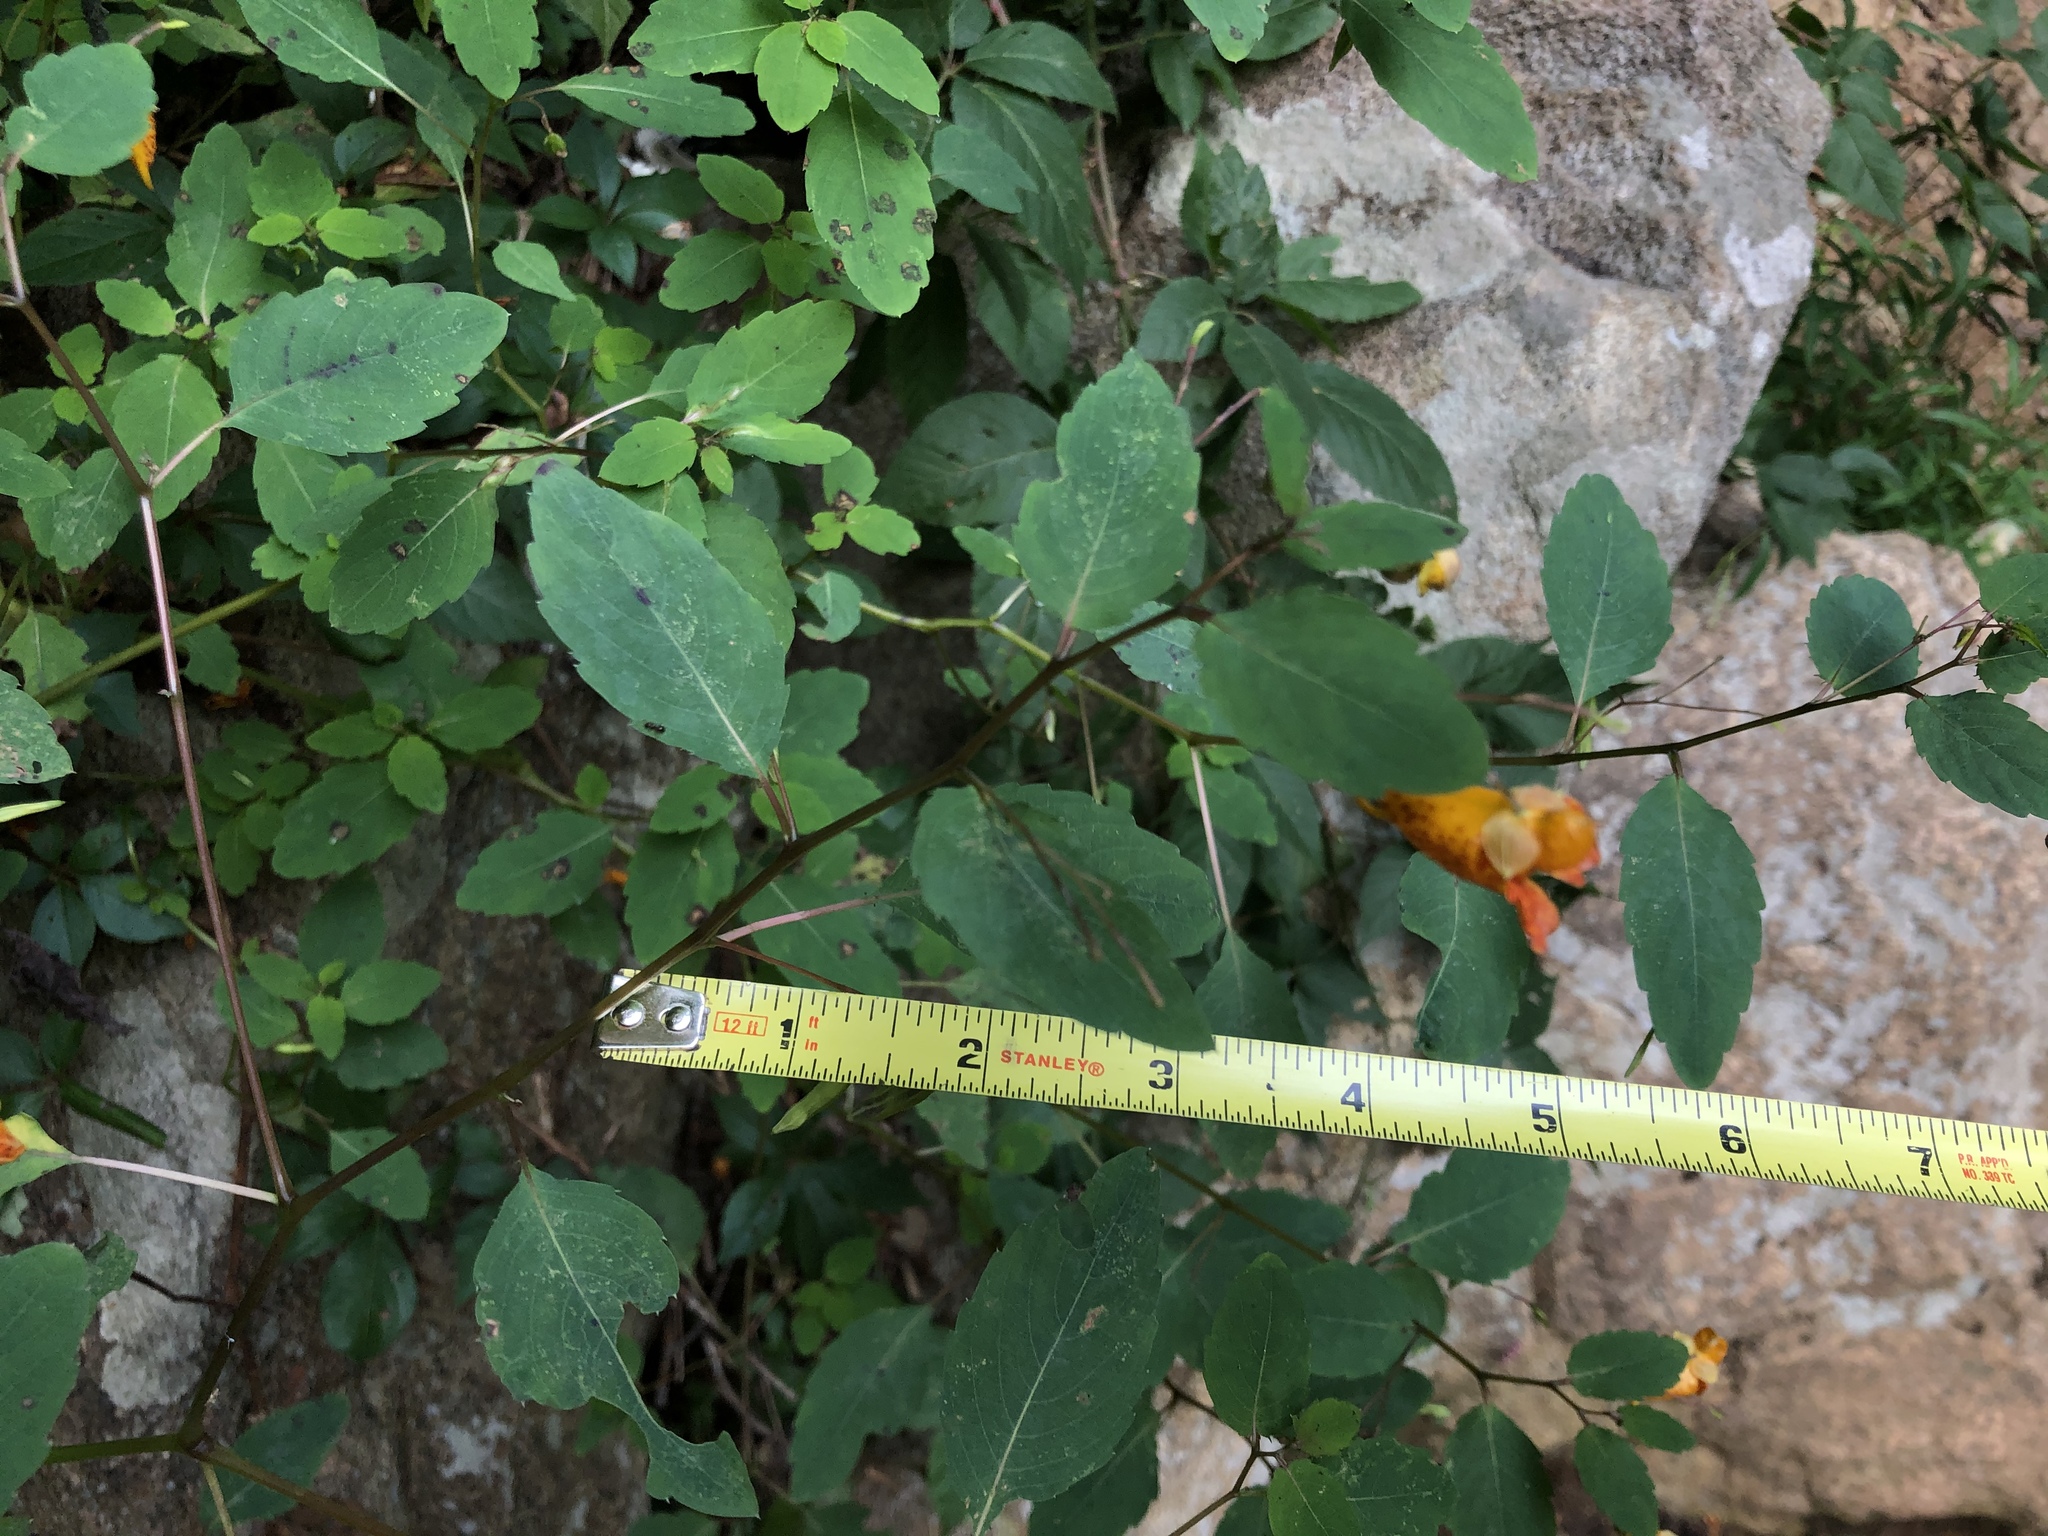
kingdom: Plantae
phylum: Tracheophyta
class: Magnoliopsida
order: Ericales
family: Balsaminaceae
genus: Impatiens
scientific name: Impatiens capensis
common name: Orange balsam
